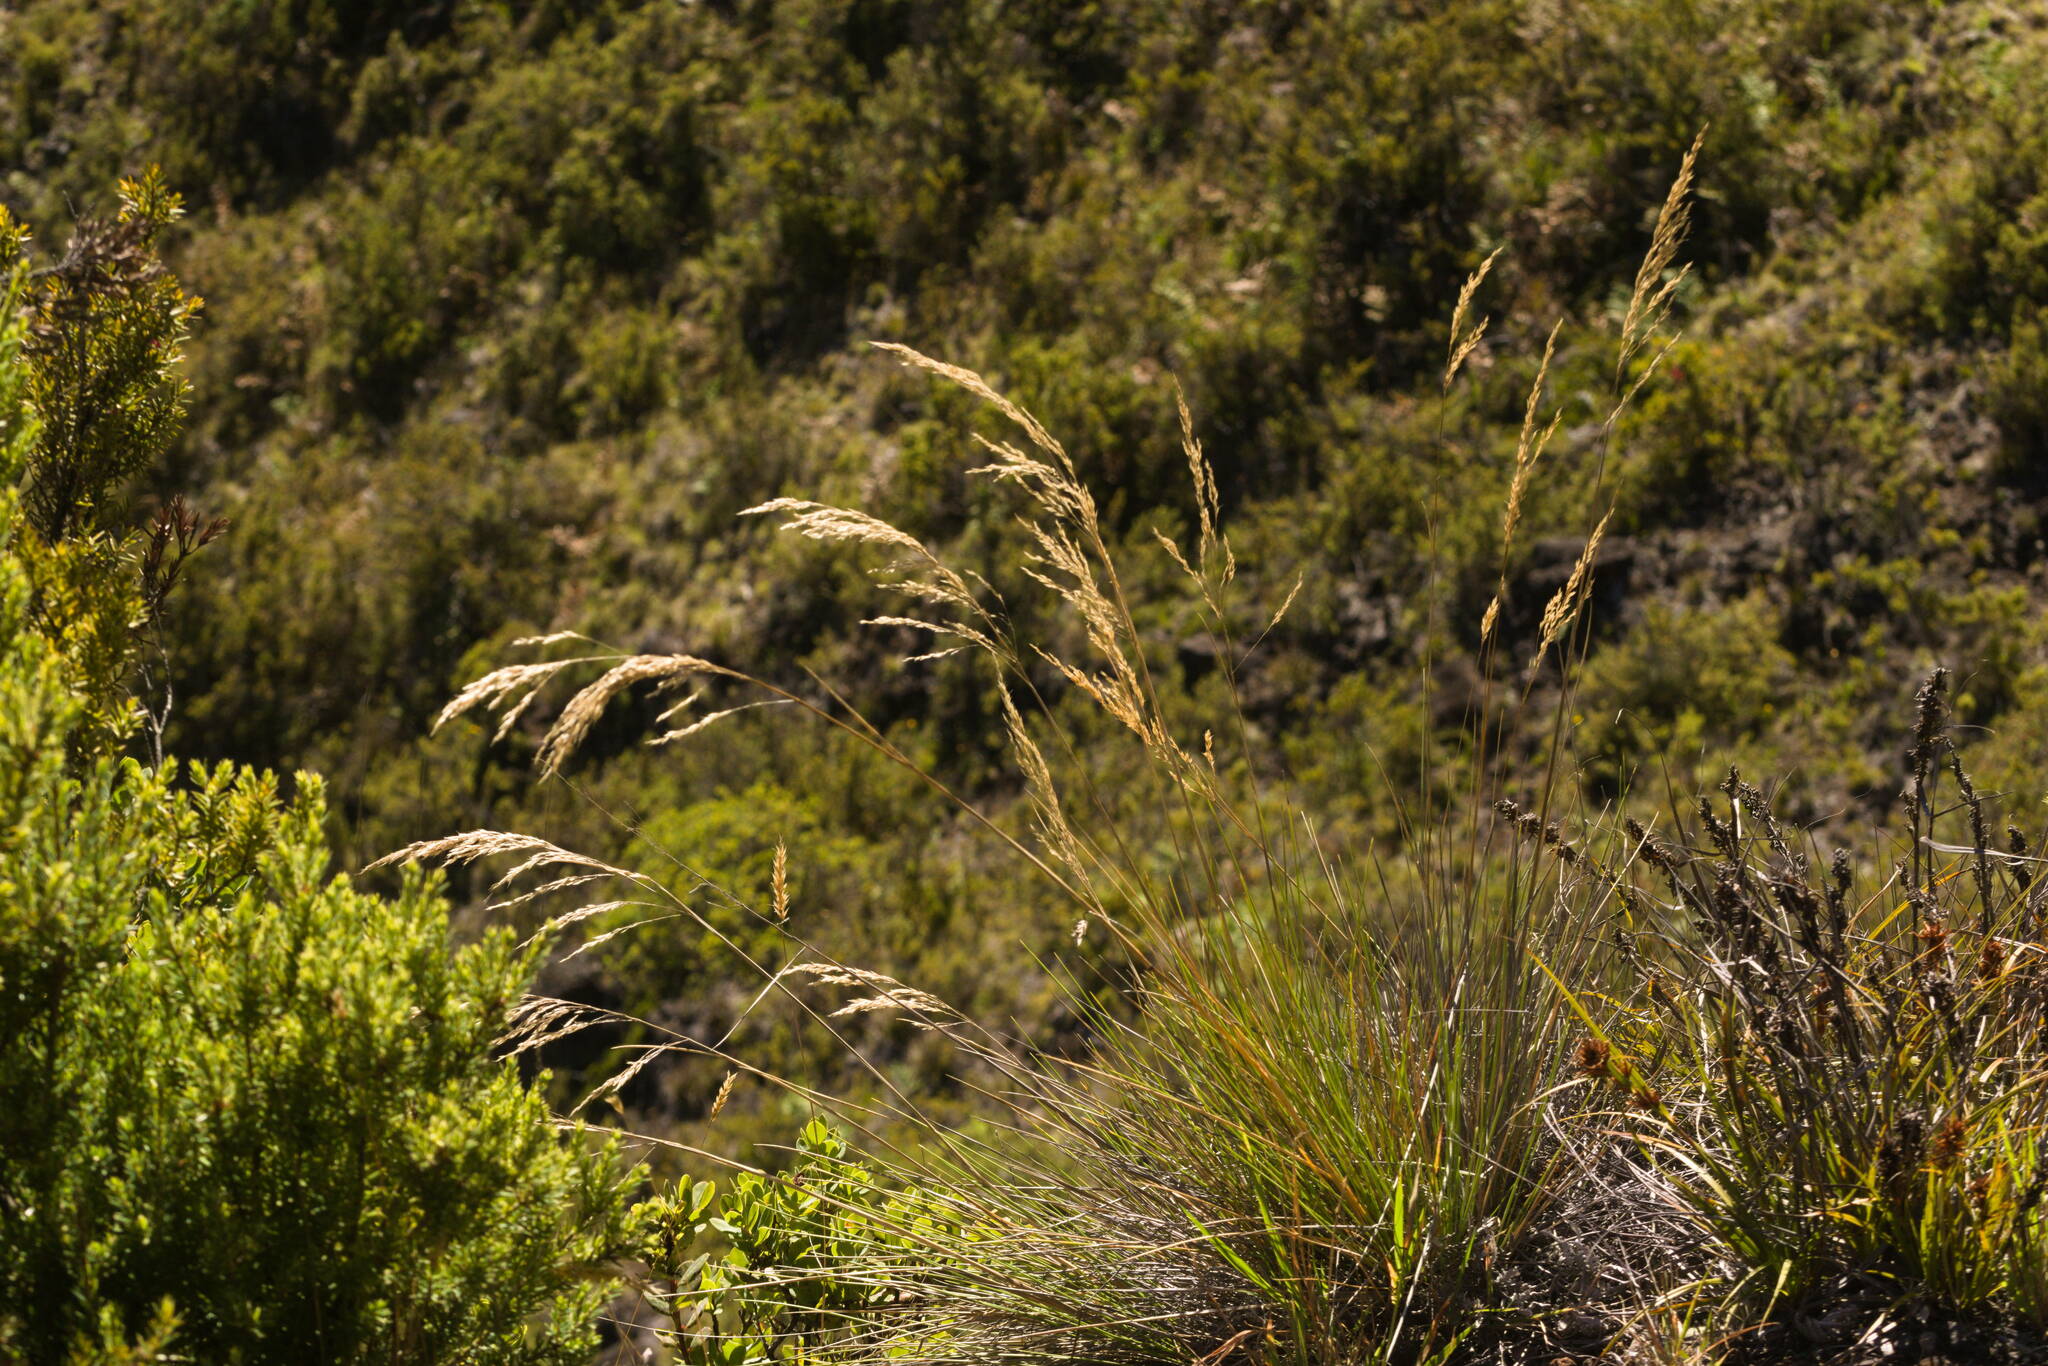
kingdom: Plantae
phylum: Tracheophyta
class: Liliopsida
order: Poales
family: Poaceae
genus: Deschampsia
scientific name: Deschampsia nubigena
